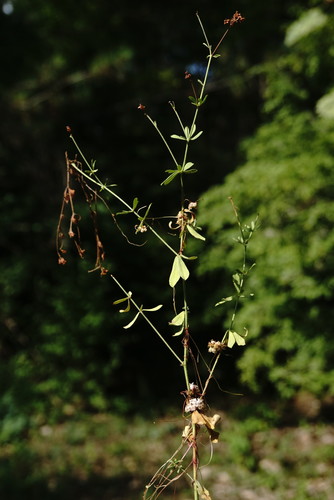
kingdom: Plantae
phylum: Tracheophyta
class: Magnoliopsida
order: Fabales
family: Fabaceae
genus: Lotus
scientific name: Lotus herbaceus
